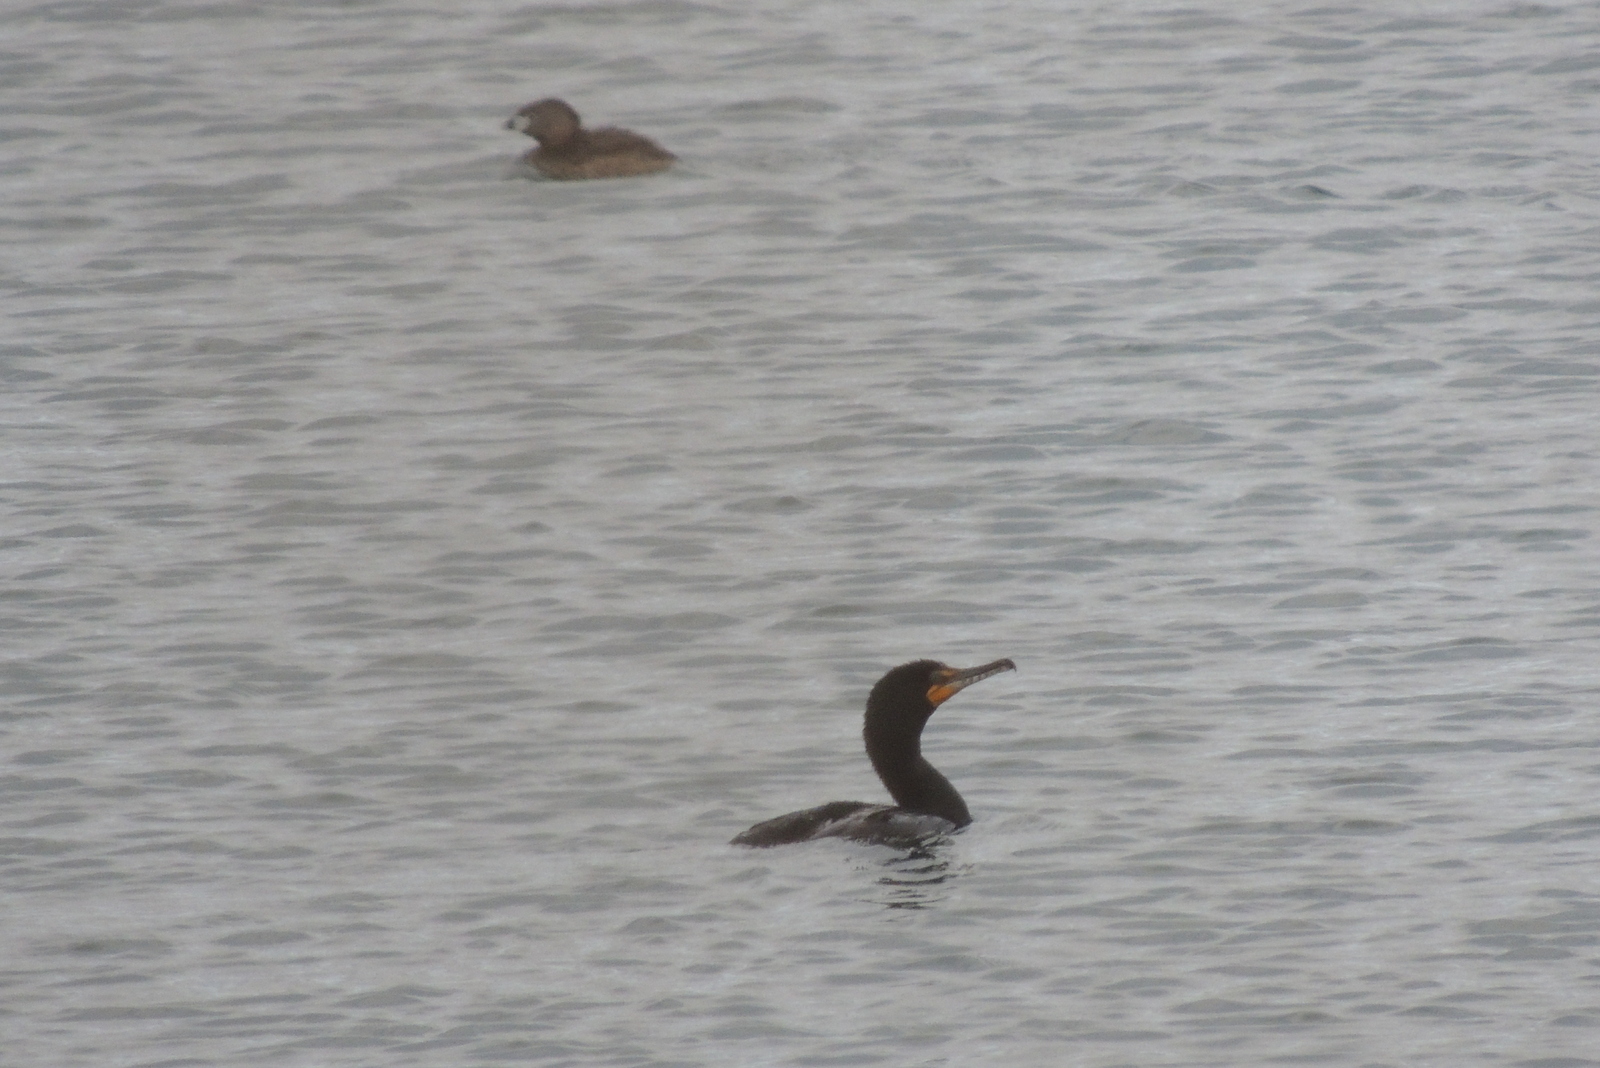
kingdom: Animalia
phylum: Chordata
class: Aves
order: Suliformes
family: Phalacrocoracidae
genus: Phalacrocorax
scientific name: Phalacrocorax auritus
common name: Double-crested cormorant
